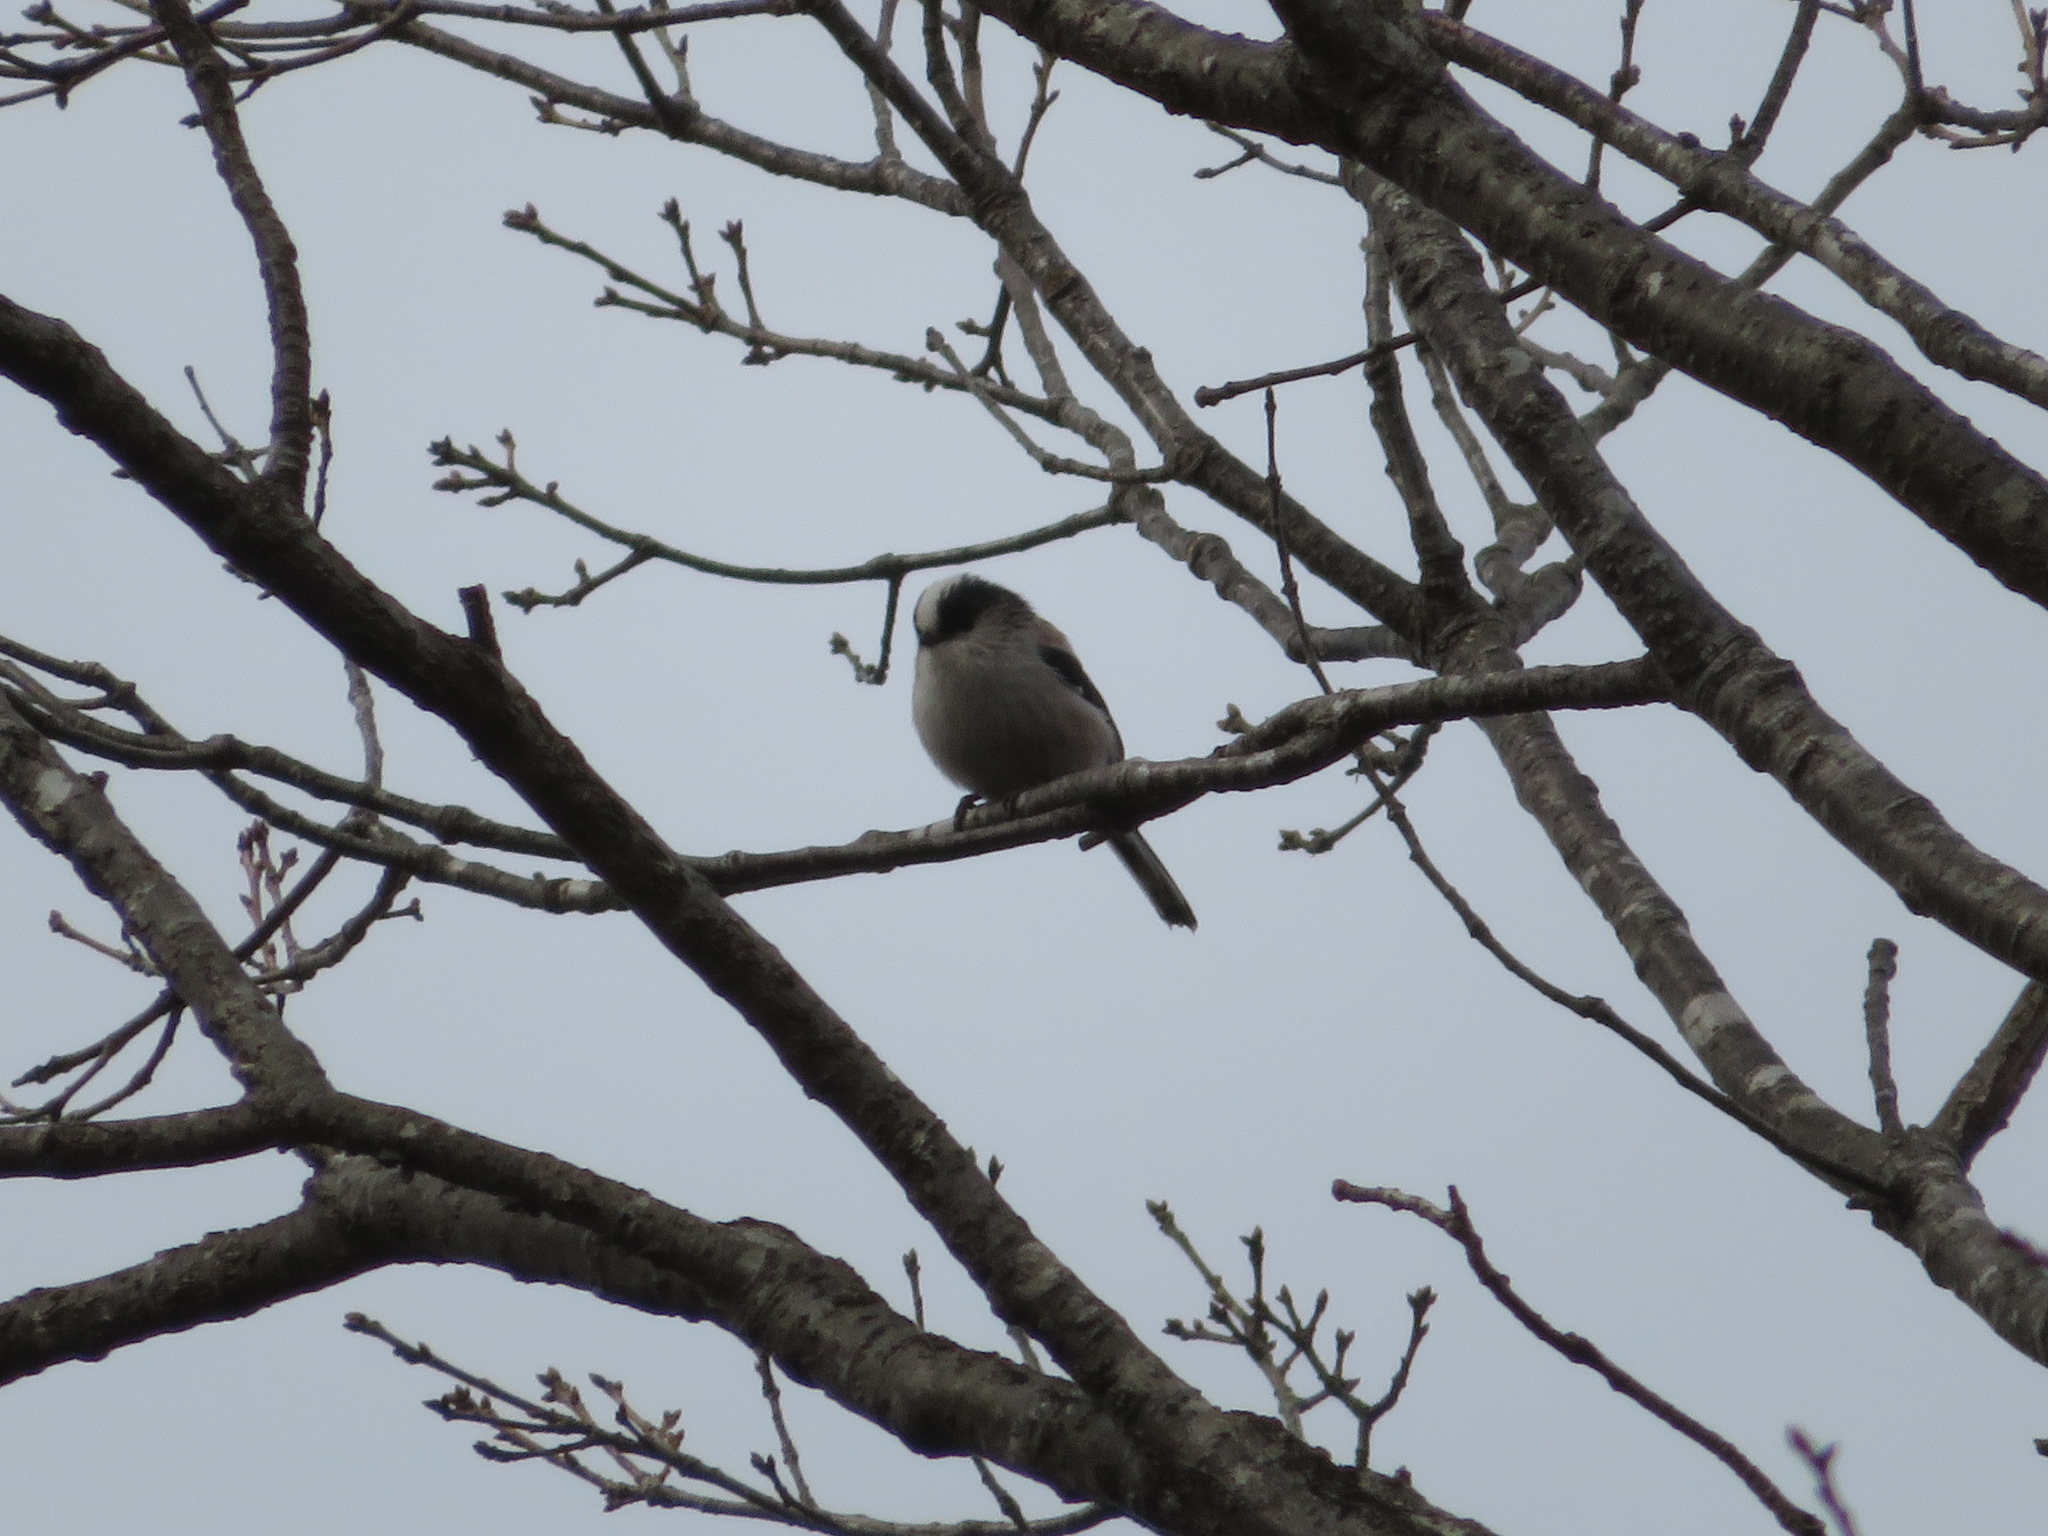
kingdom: Animalia
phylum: Chordata
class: Aves
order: Passeriformes
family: Aegithalidae
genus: Aegithalos
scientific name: Aegithalos caudatus
